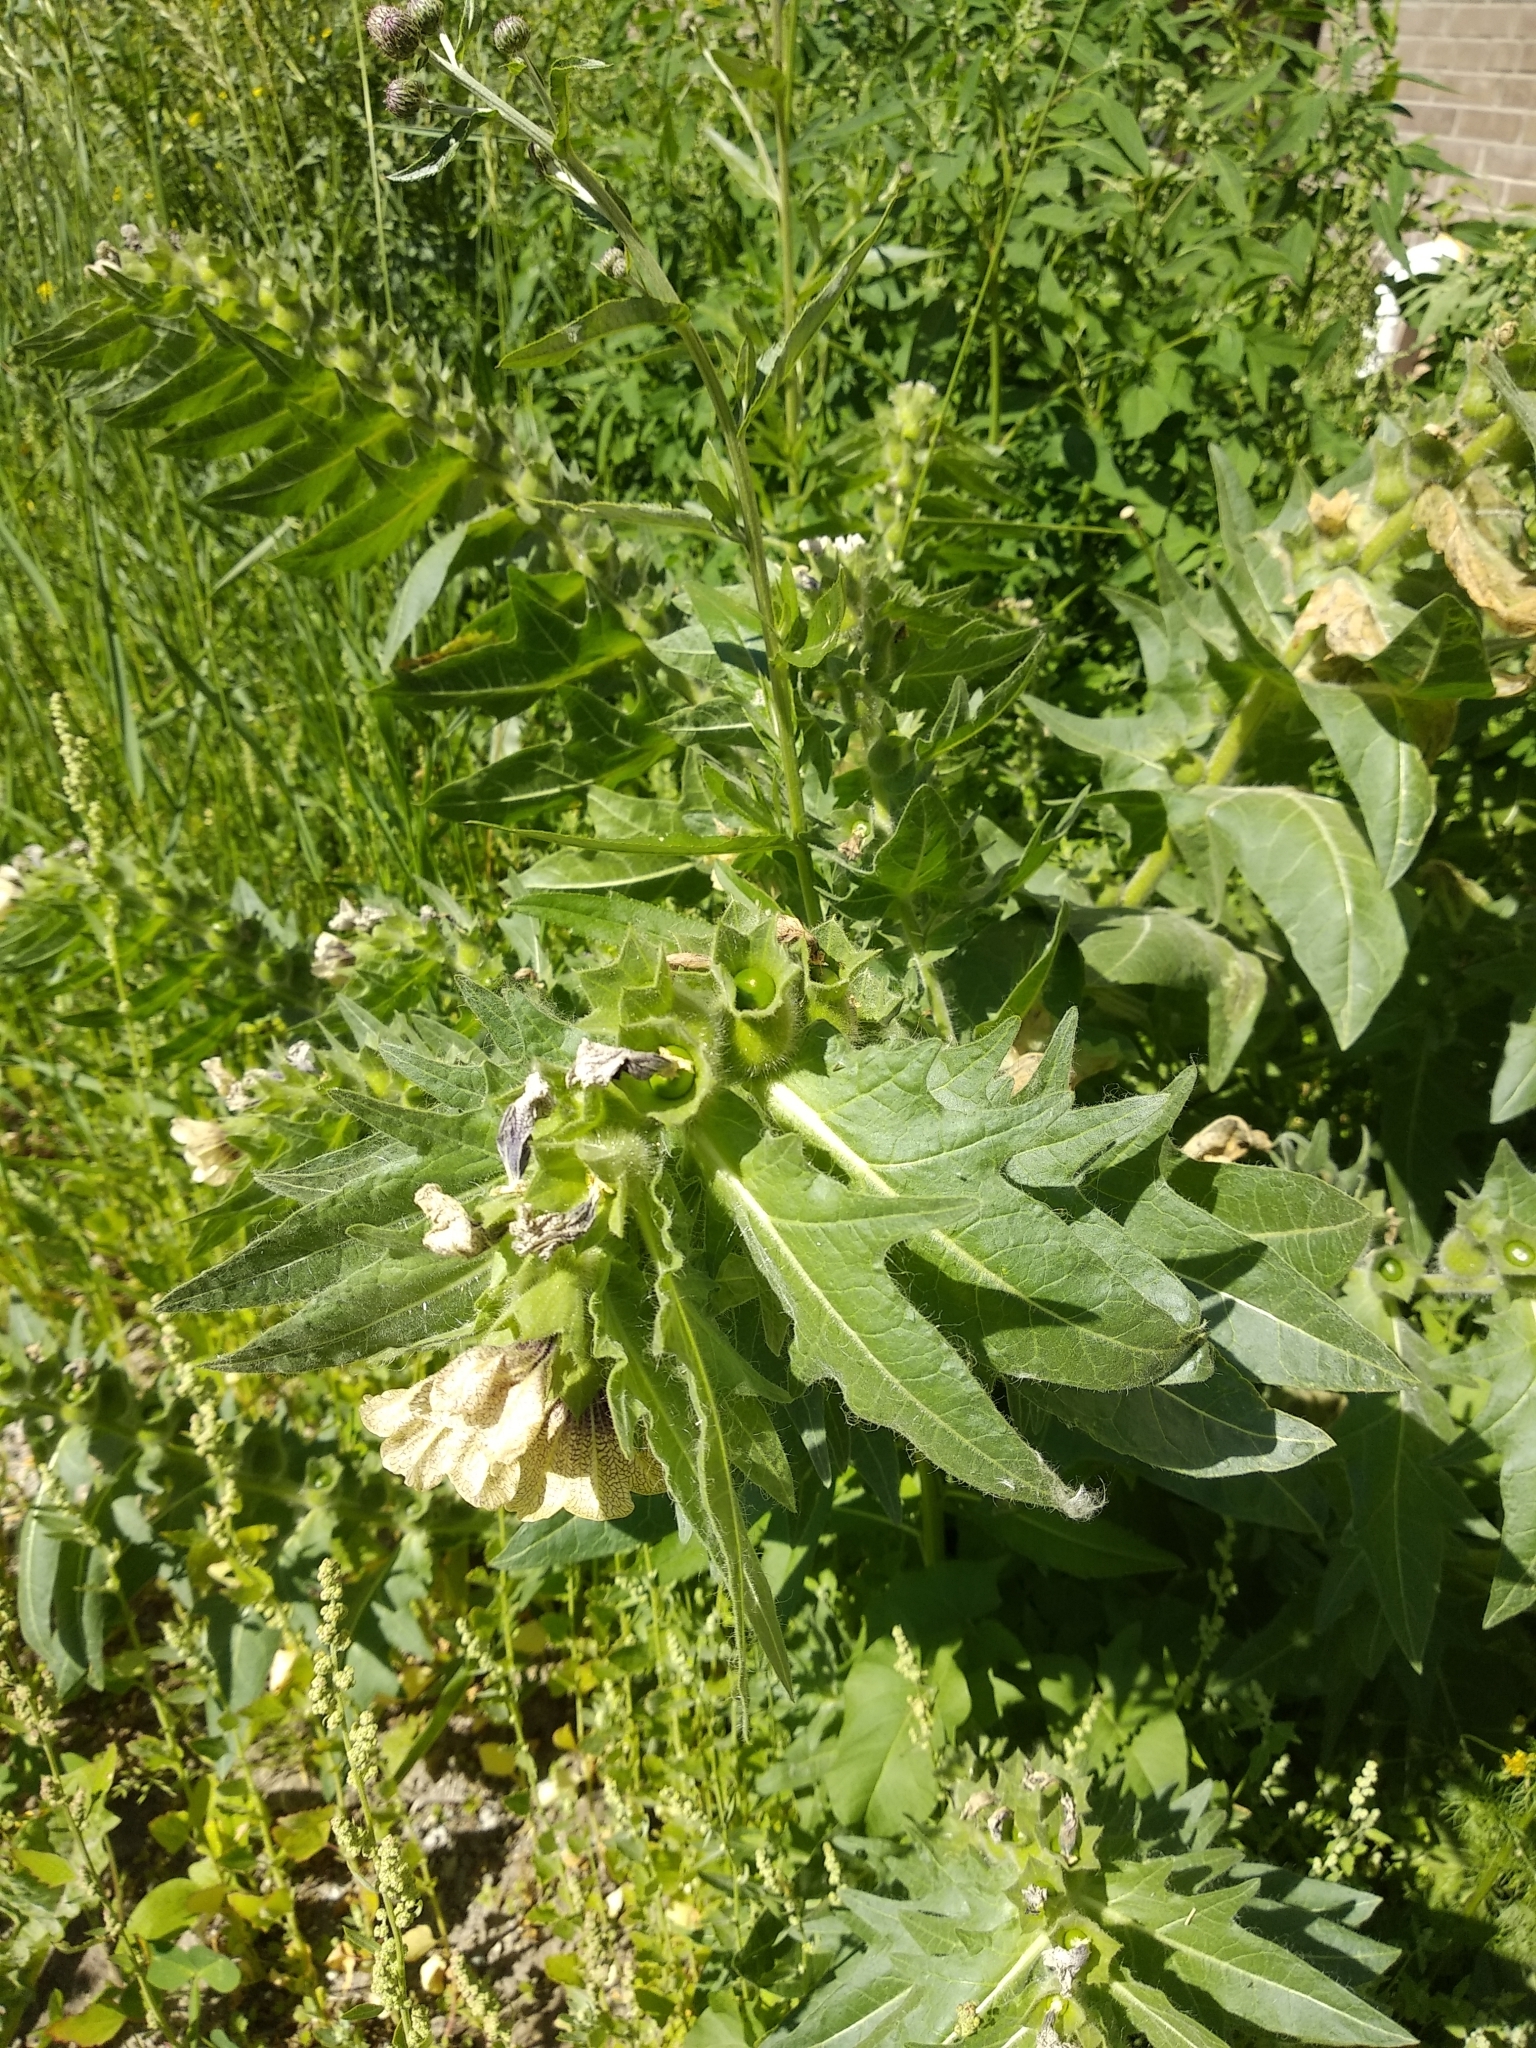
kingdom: Plantae
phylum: Tracheophyta
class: Magnoliopsida
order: Solanales
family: Solanaceae
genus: Hyoscyamus
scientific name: Hyoscyamus niger
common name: Henbane
